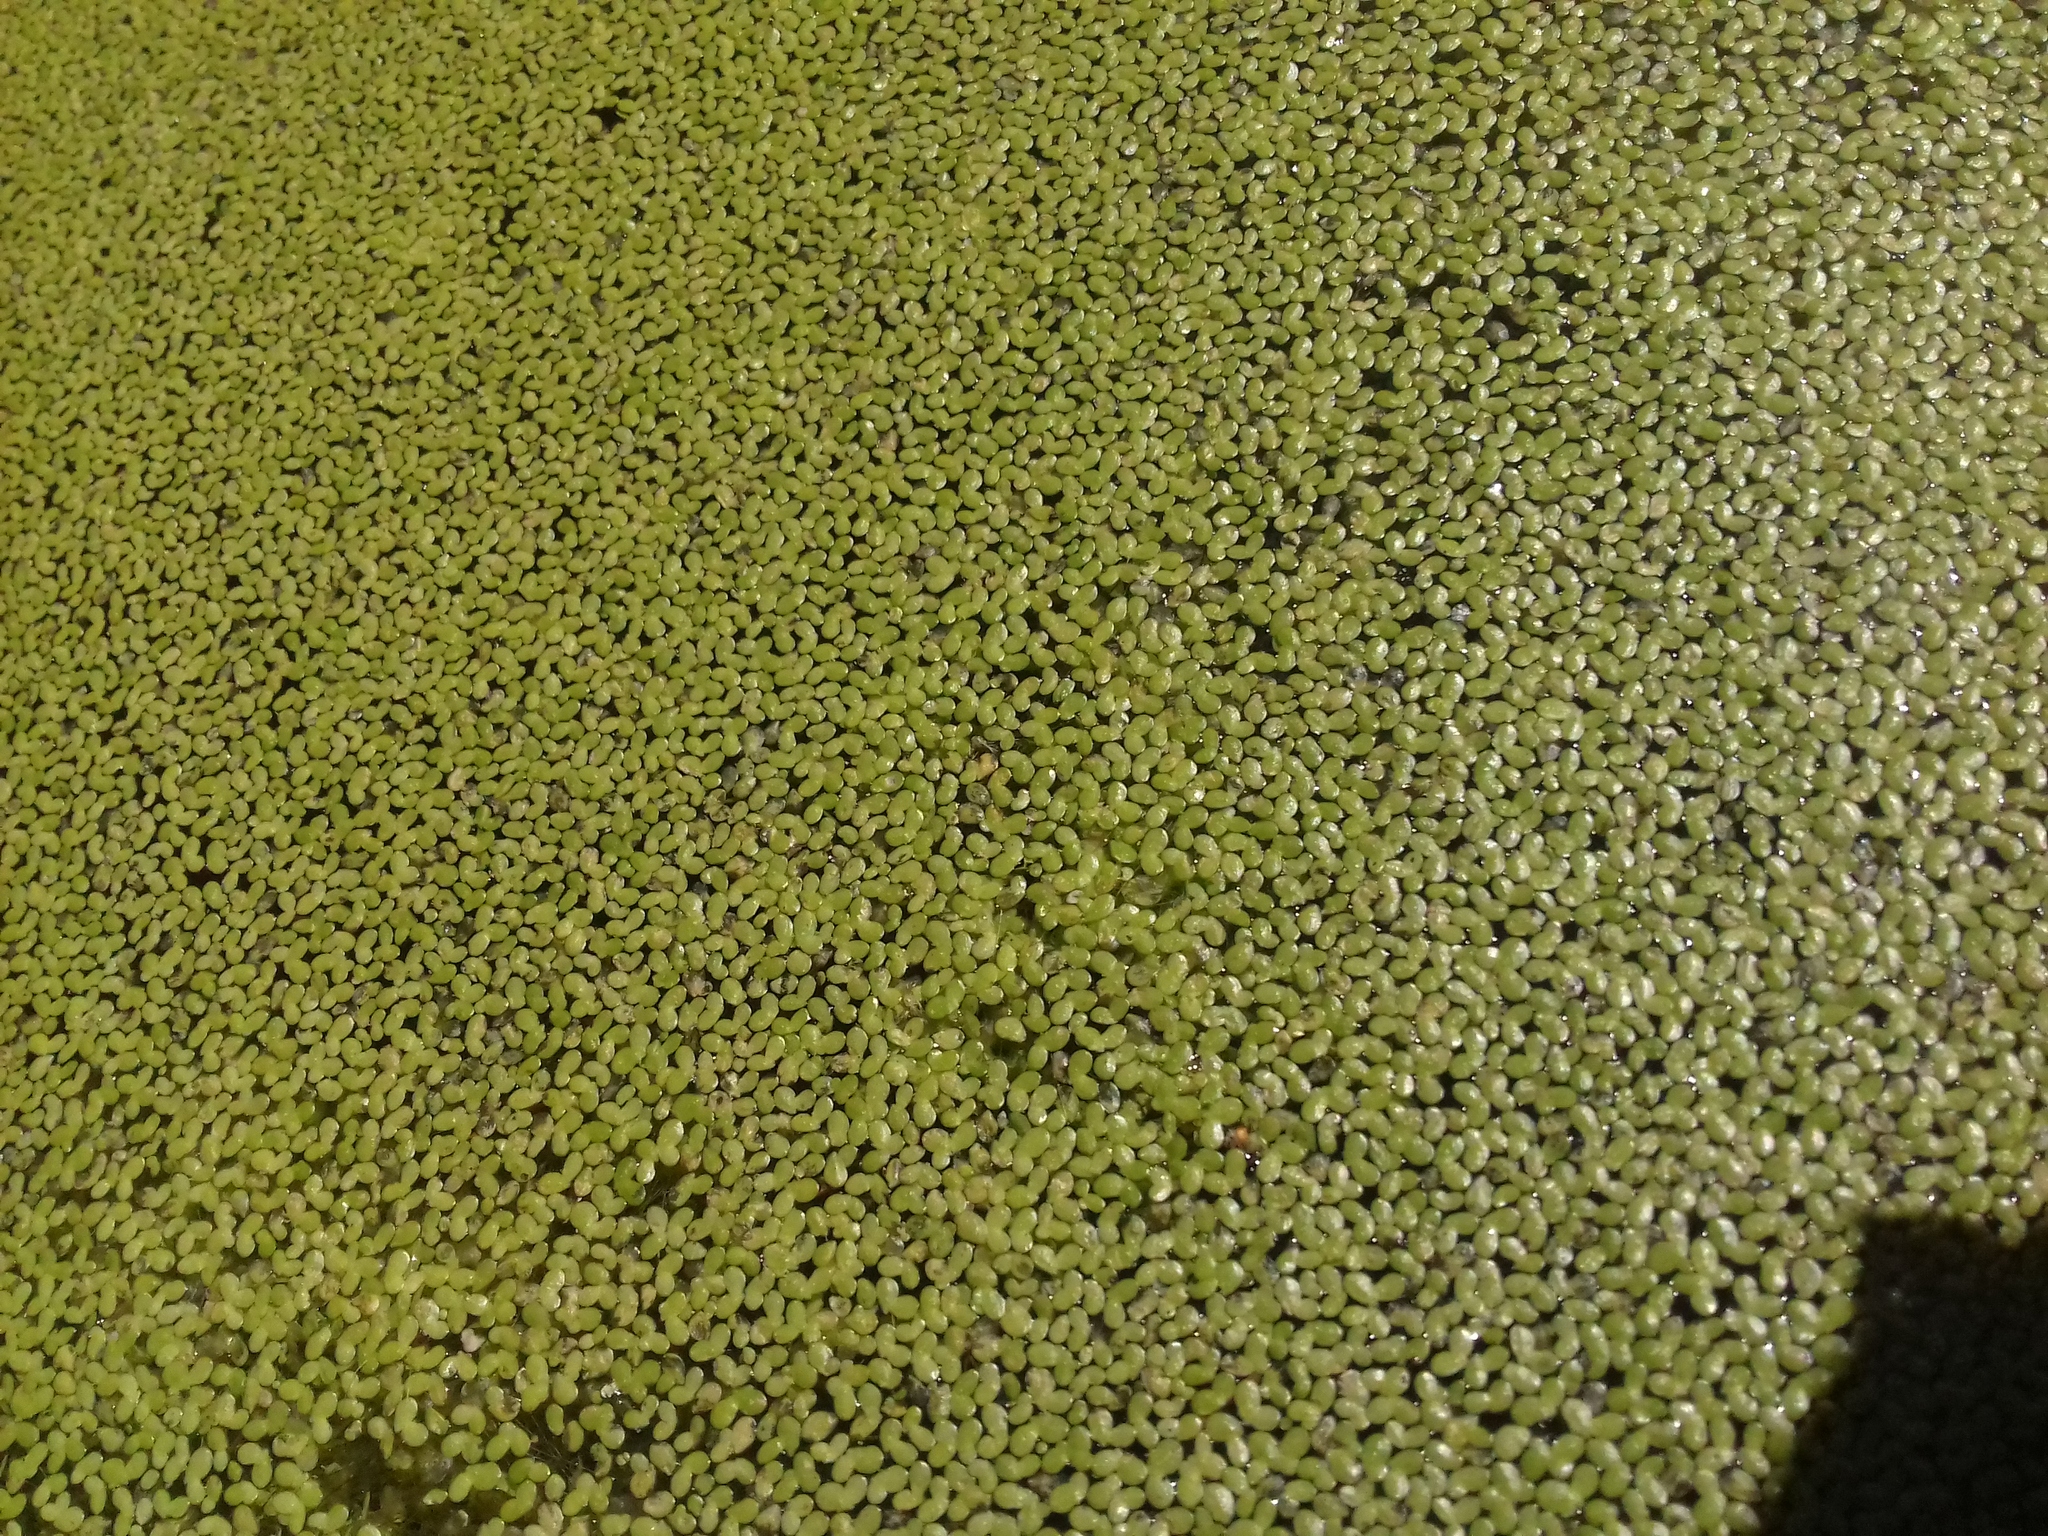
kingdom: Plantae
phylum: Tracheophyta
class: Liliopsida
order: Alismatales
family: Araceae
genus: Lemna
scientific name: Lemna minor
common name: Common duckweed
